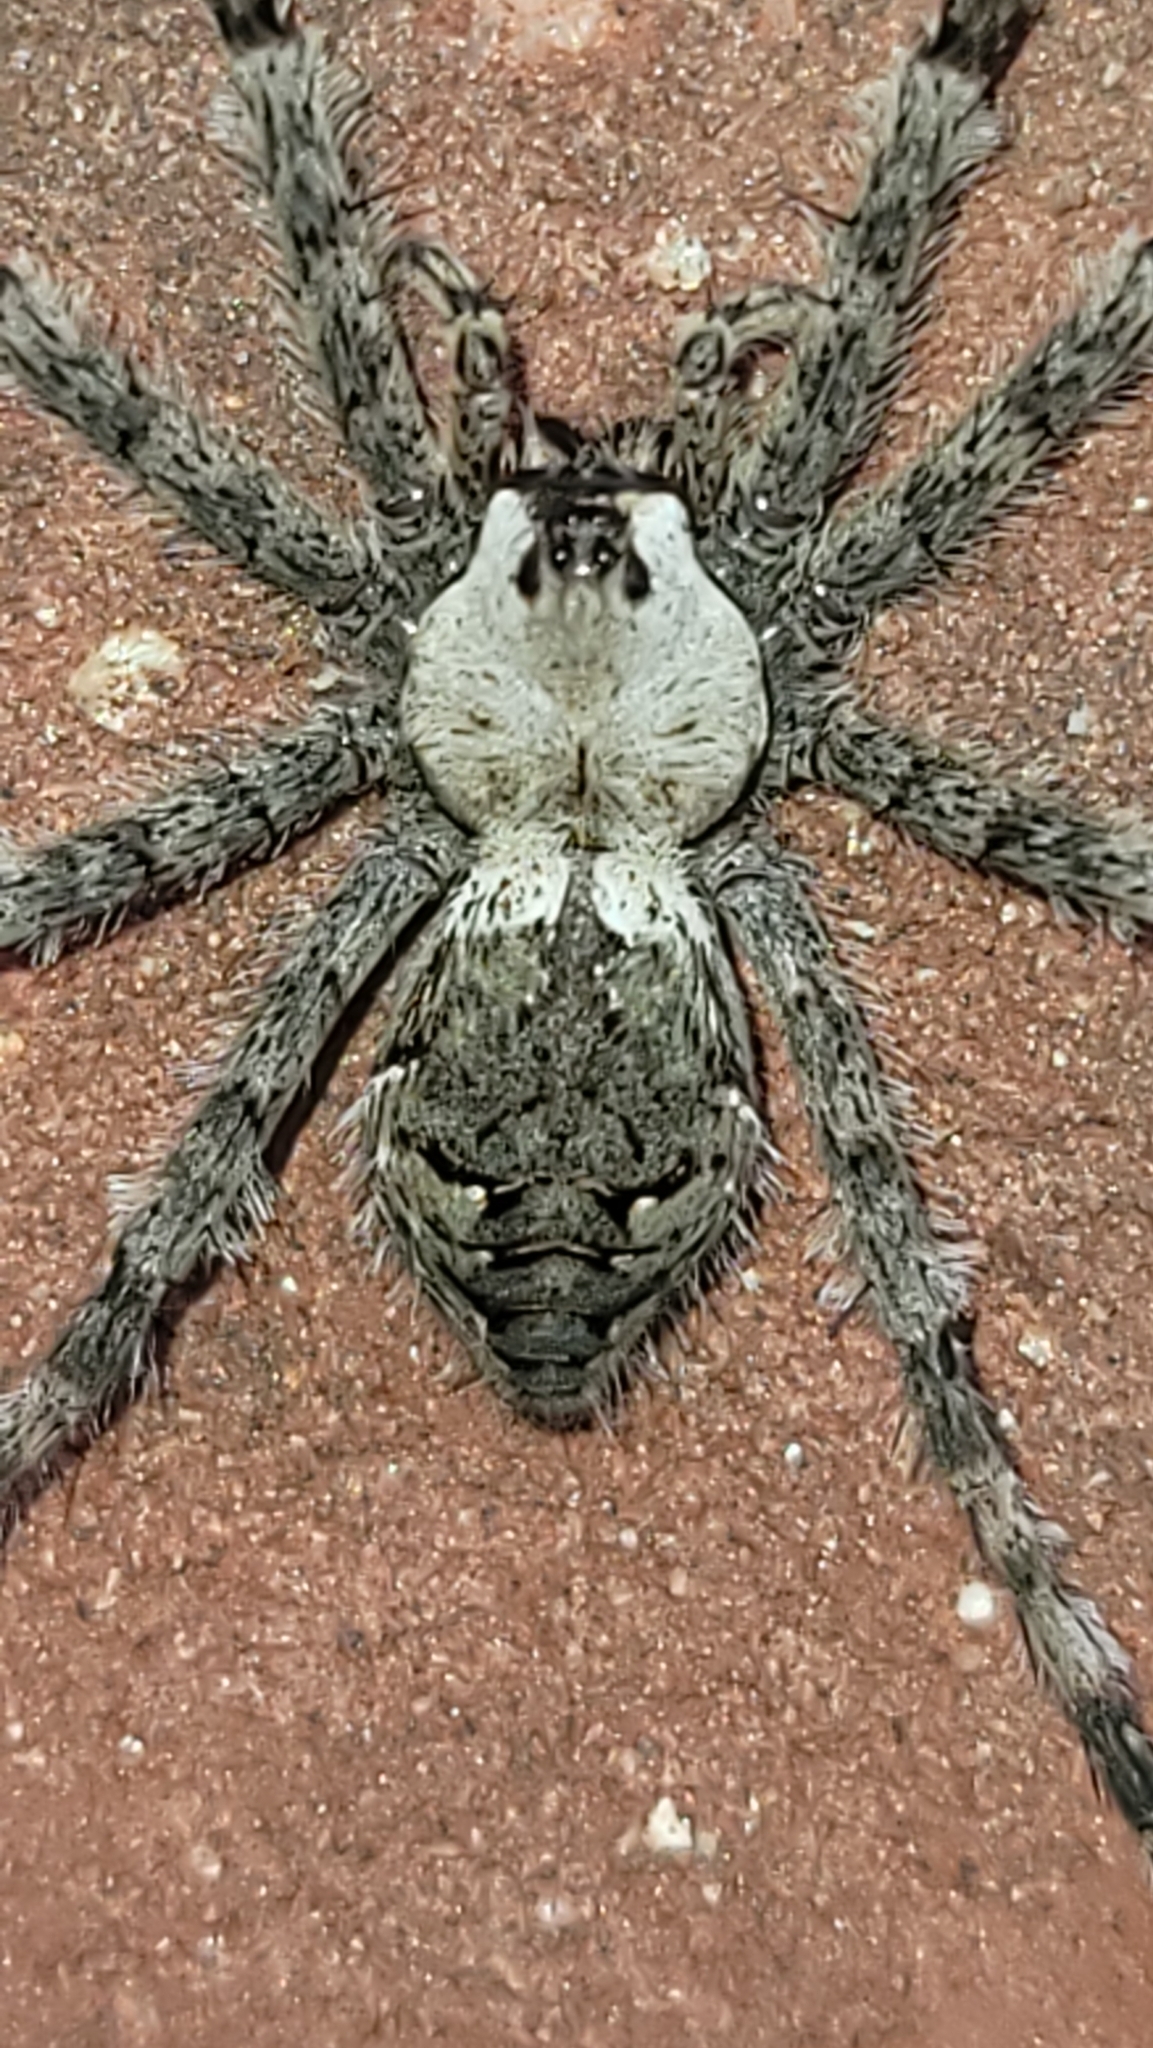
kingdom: Animalia
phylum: Arthropoda
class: Arachnida
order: Araneae
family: Pisauridae
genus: Dolomedes
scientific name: Dolomedes albineus
